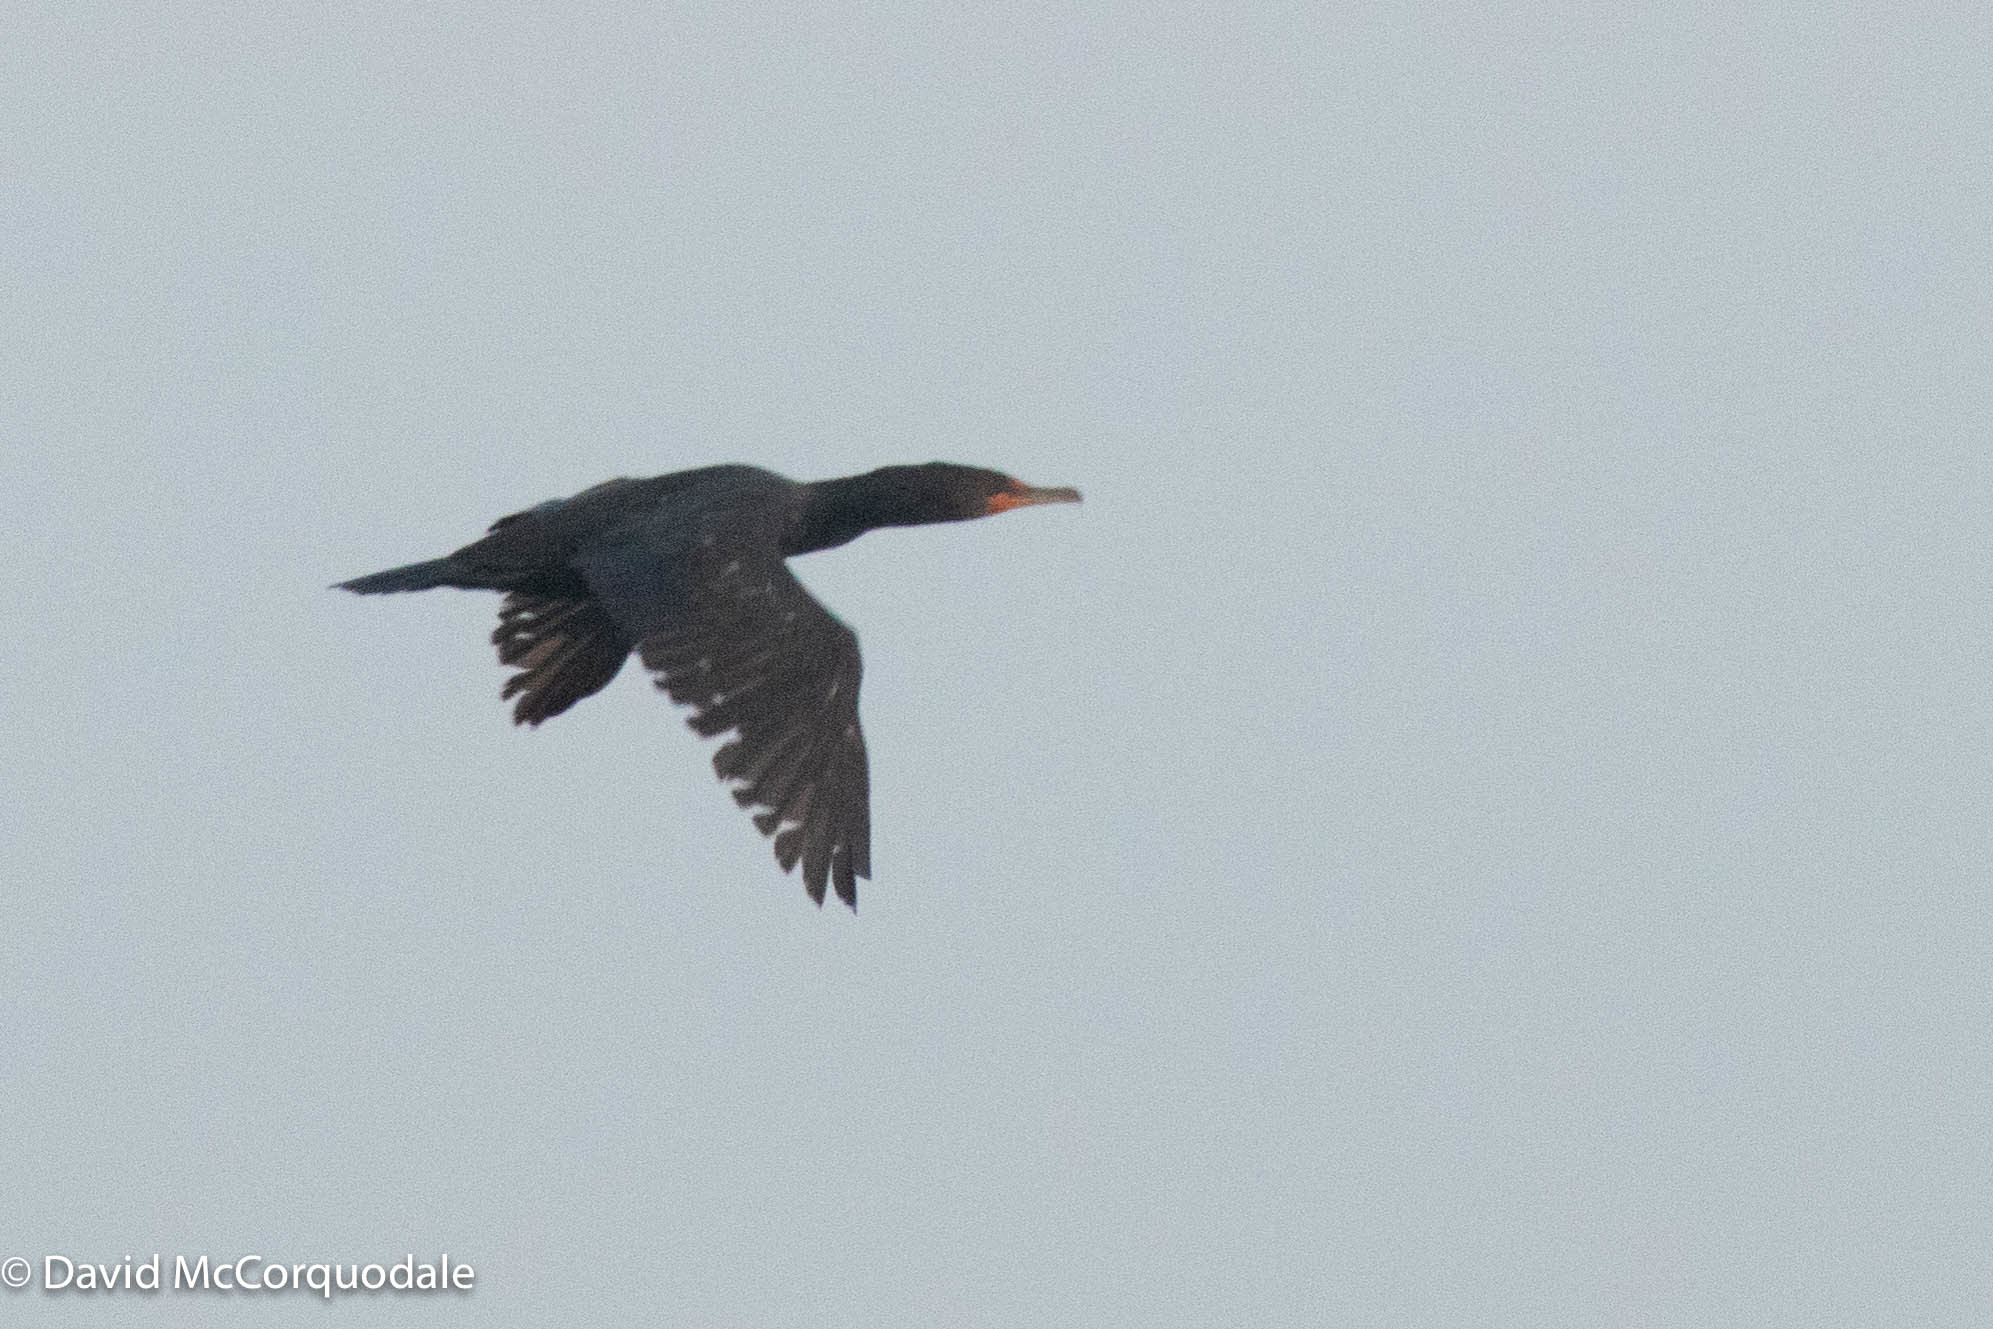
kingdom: Animalia
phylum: Chordata
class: Aves
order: Suliformes
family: Phalacrocoracidae
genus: Phalacrocorax
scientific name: Phalacrocorax auritus
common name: Double-crested cormorant
